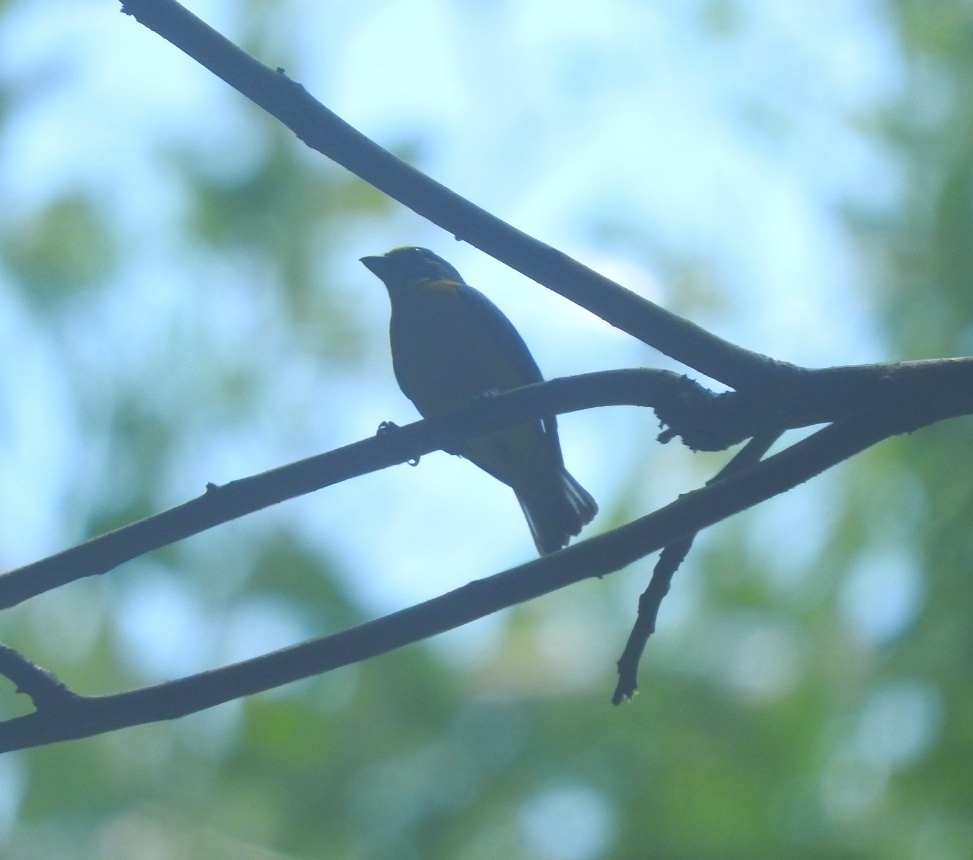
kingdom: Animalia
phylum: Chordata
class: Aves
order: Passeriformes
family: Fringillidae
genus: Euphonia
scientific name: Euphonia hirundinacea
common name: Yellow-throated euphonia
